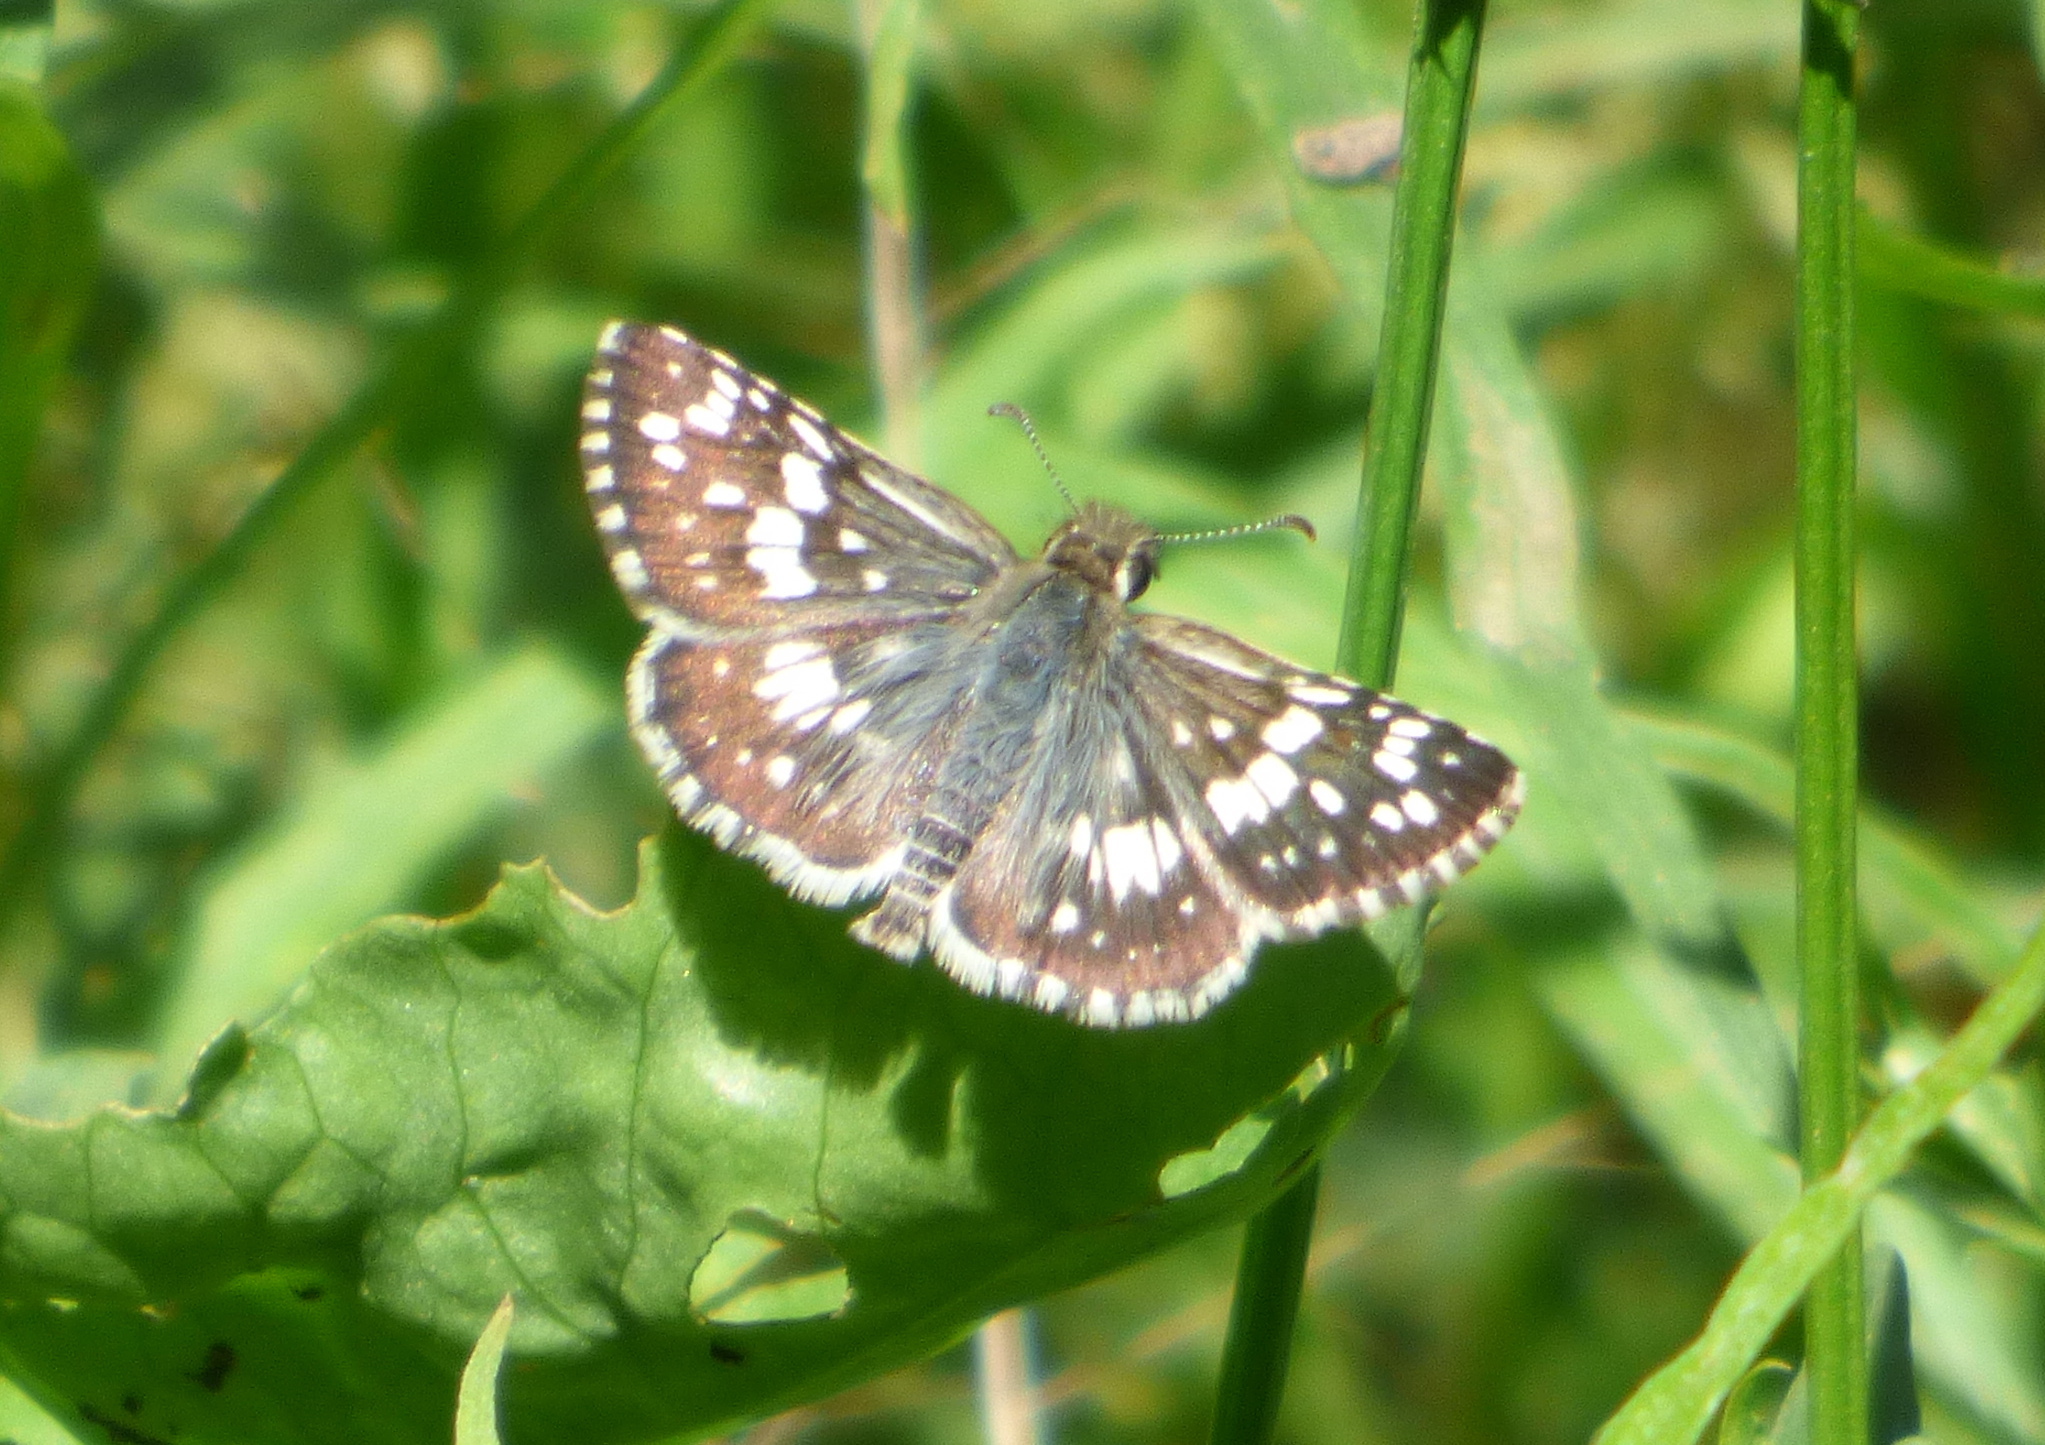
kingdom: Animalia
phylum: Arthropoda
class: Insecta
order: Lepidoptera
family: Hesperiidae
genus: Burnsius
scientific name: Burnsius orcynoides
